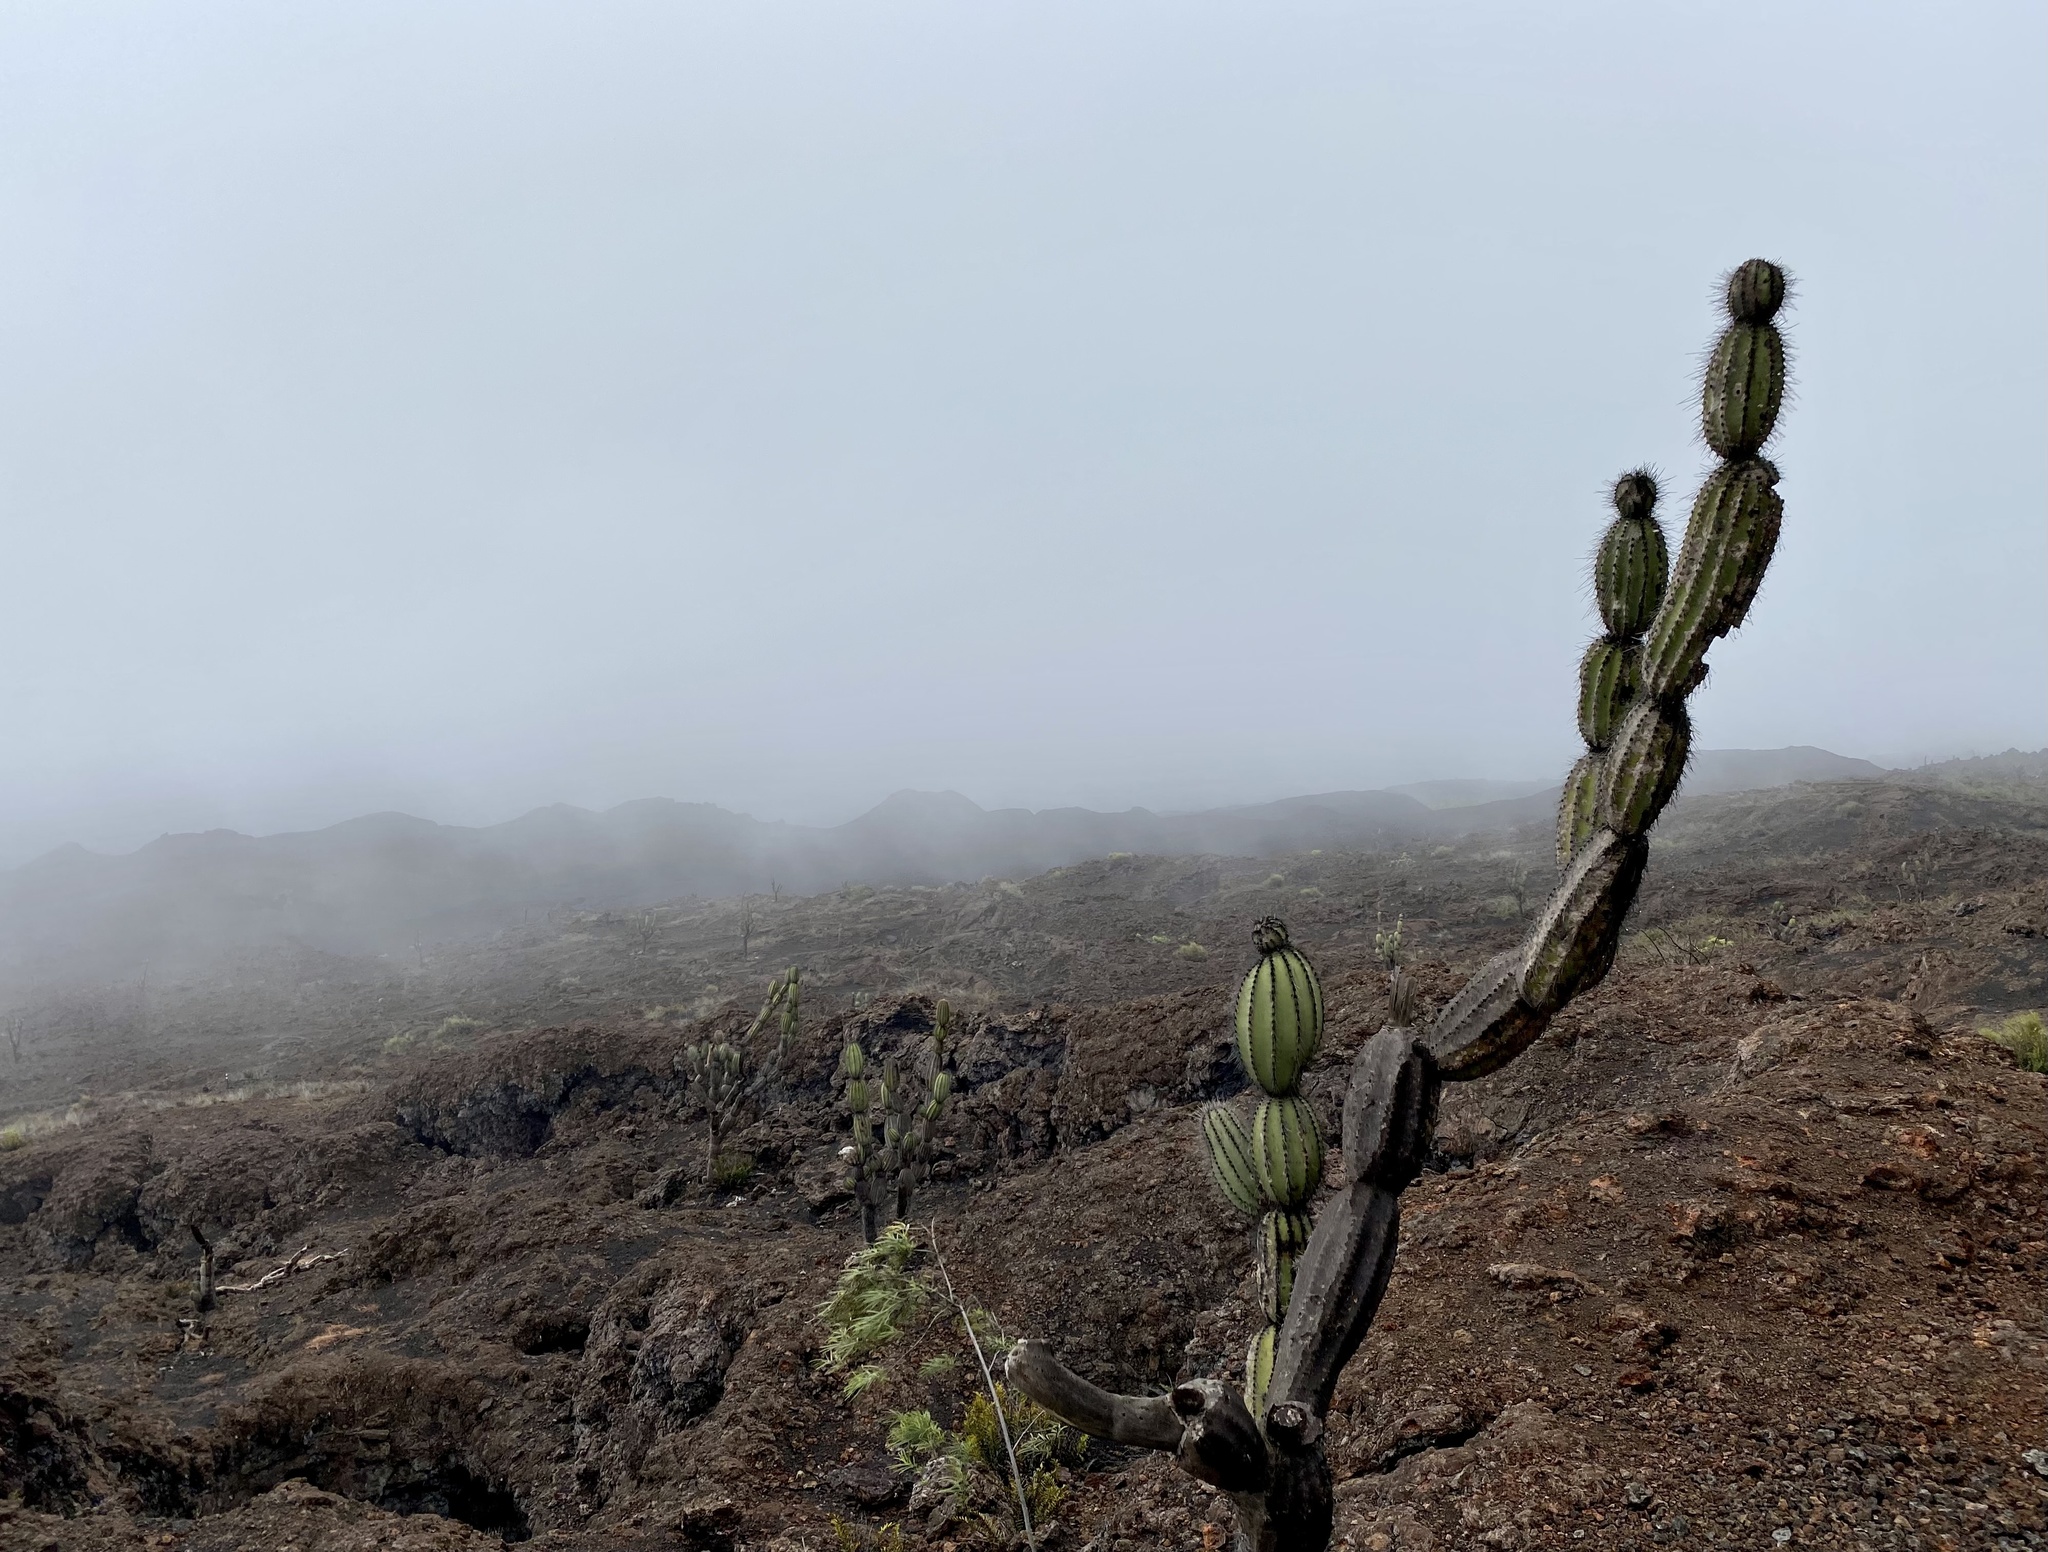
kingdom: Plantae
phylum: Tracheophyta
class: Magnoliopsida
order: Caryophyllales
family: Cactaceae
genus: Jasminocereus
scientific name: Jasminocereus thouarsii
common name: Candelabra cactus
